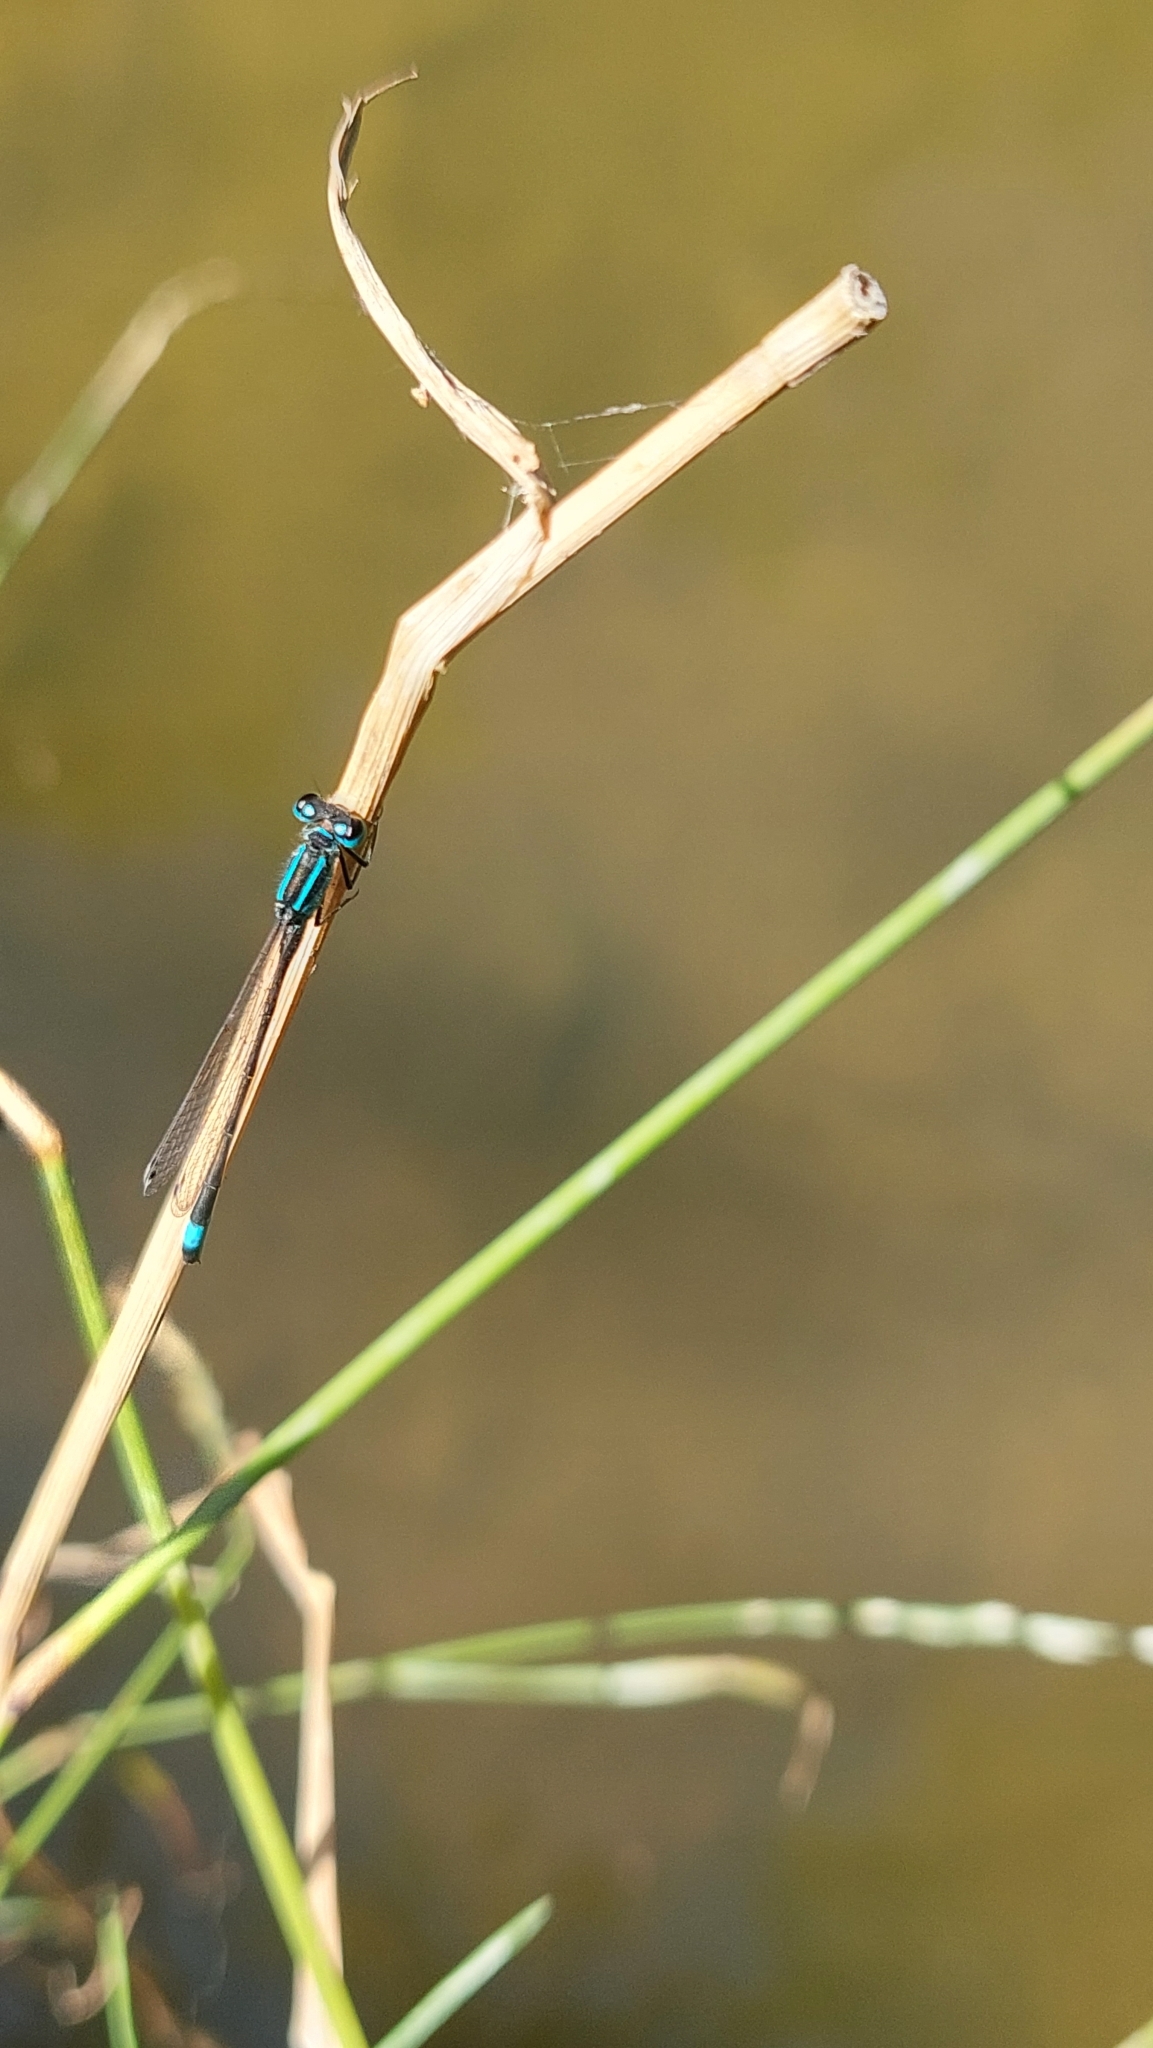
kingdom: Animalia
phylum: Arthropoda
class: Insecta
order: Odonata
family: Coenagrionidae
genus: Ischnura
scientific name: Ischnura elegans
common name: Blue-tailed damselfly
